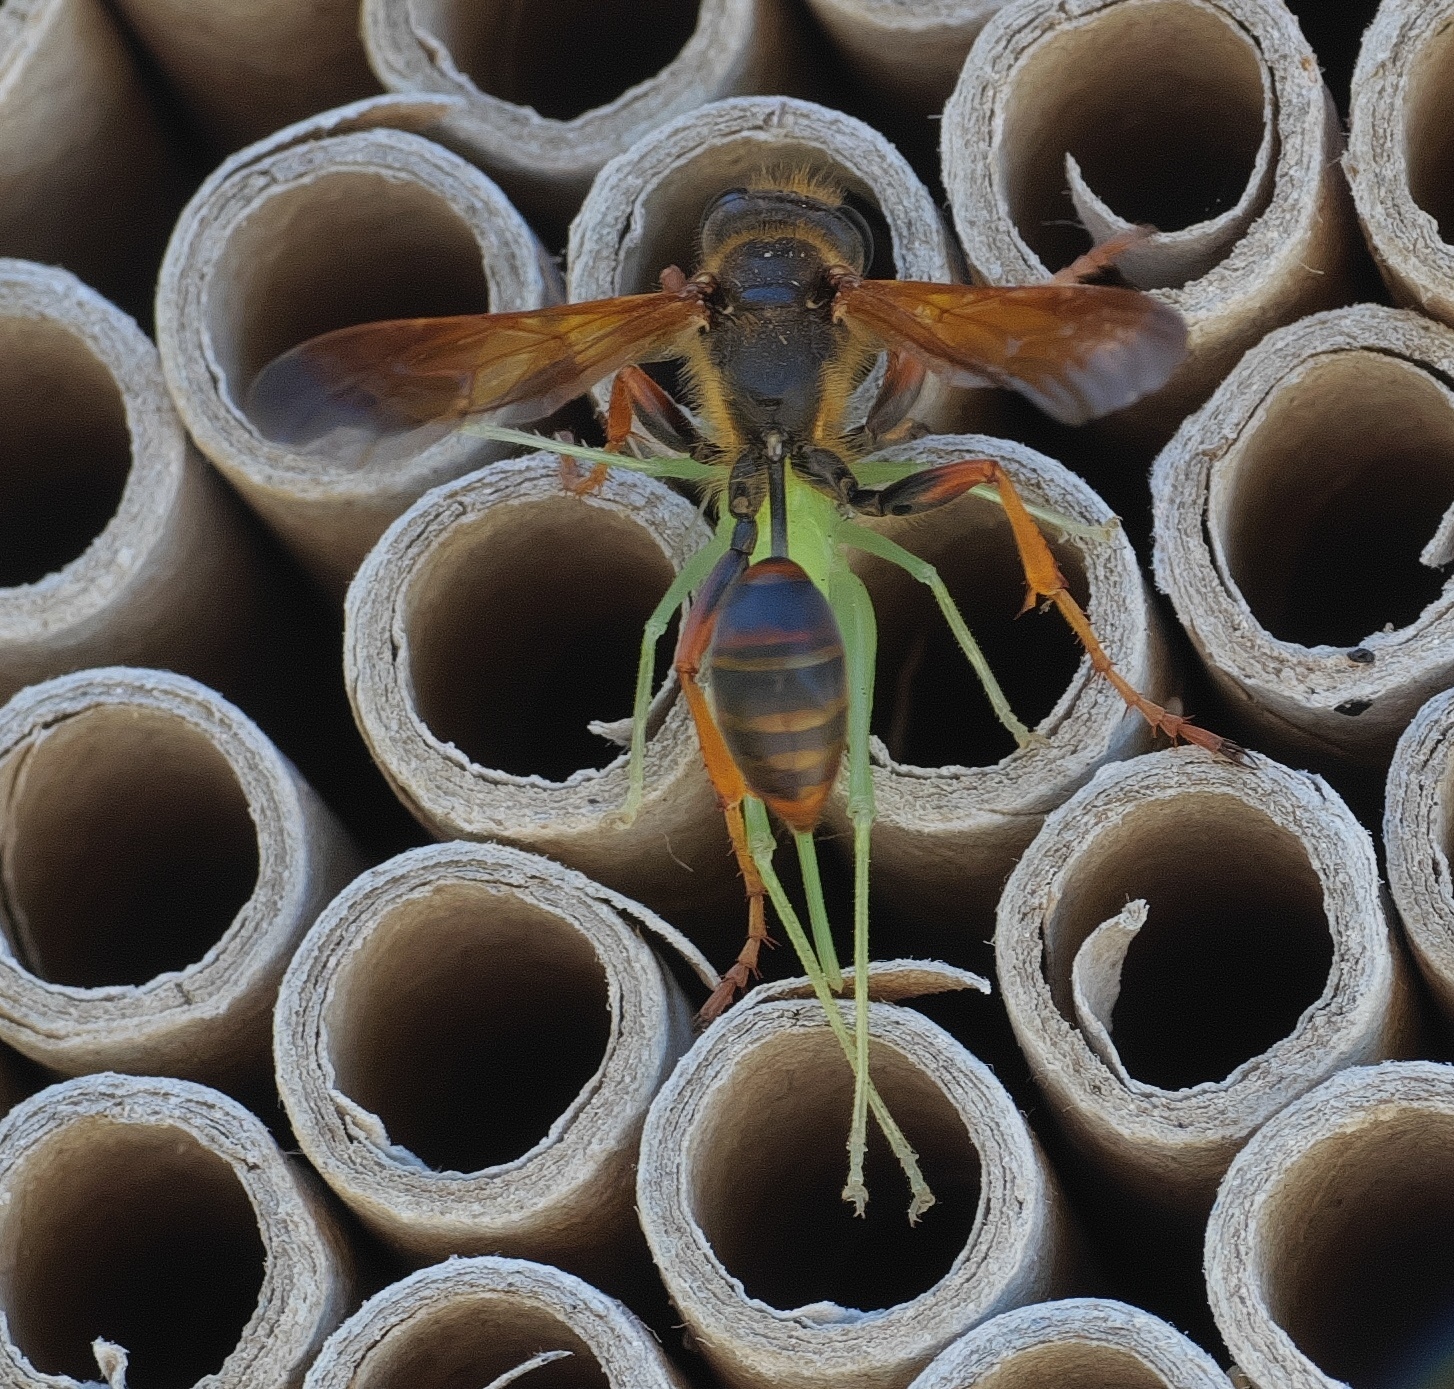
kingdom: Animalia
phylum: Arthropoda
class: Insecta
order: Hymenoptera
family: Sphecidae
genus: Isodontia
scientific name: Isodontia elegans
